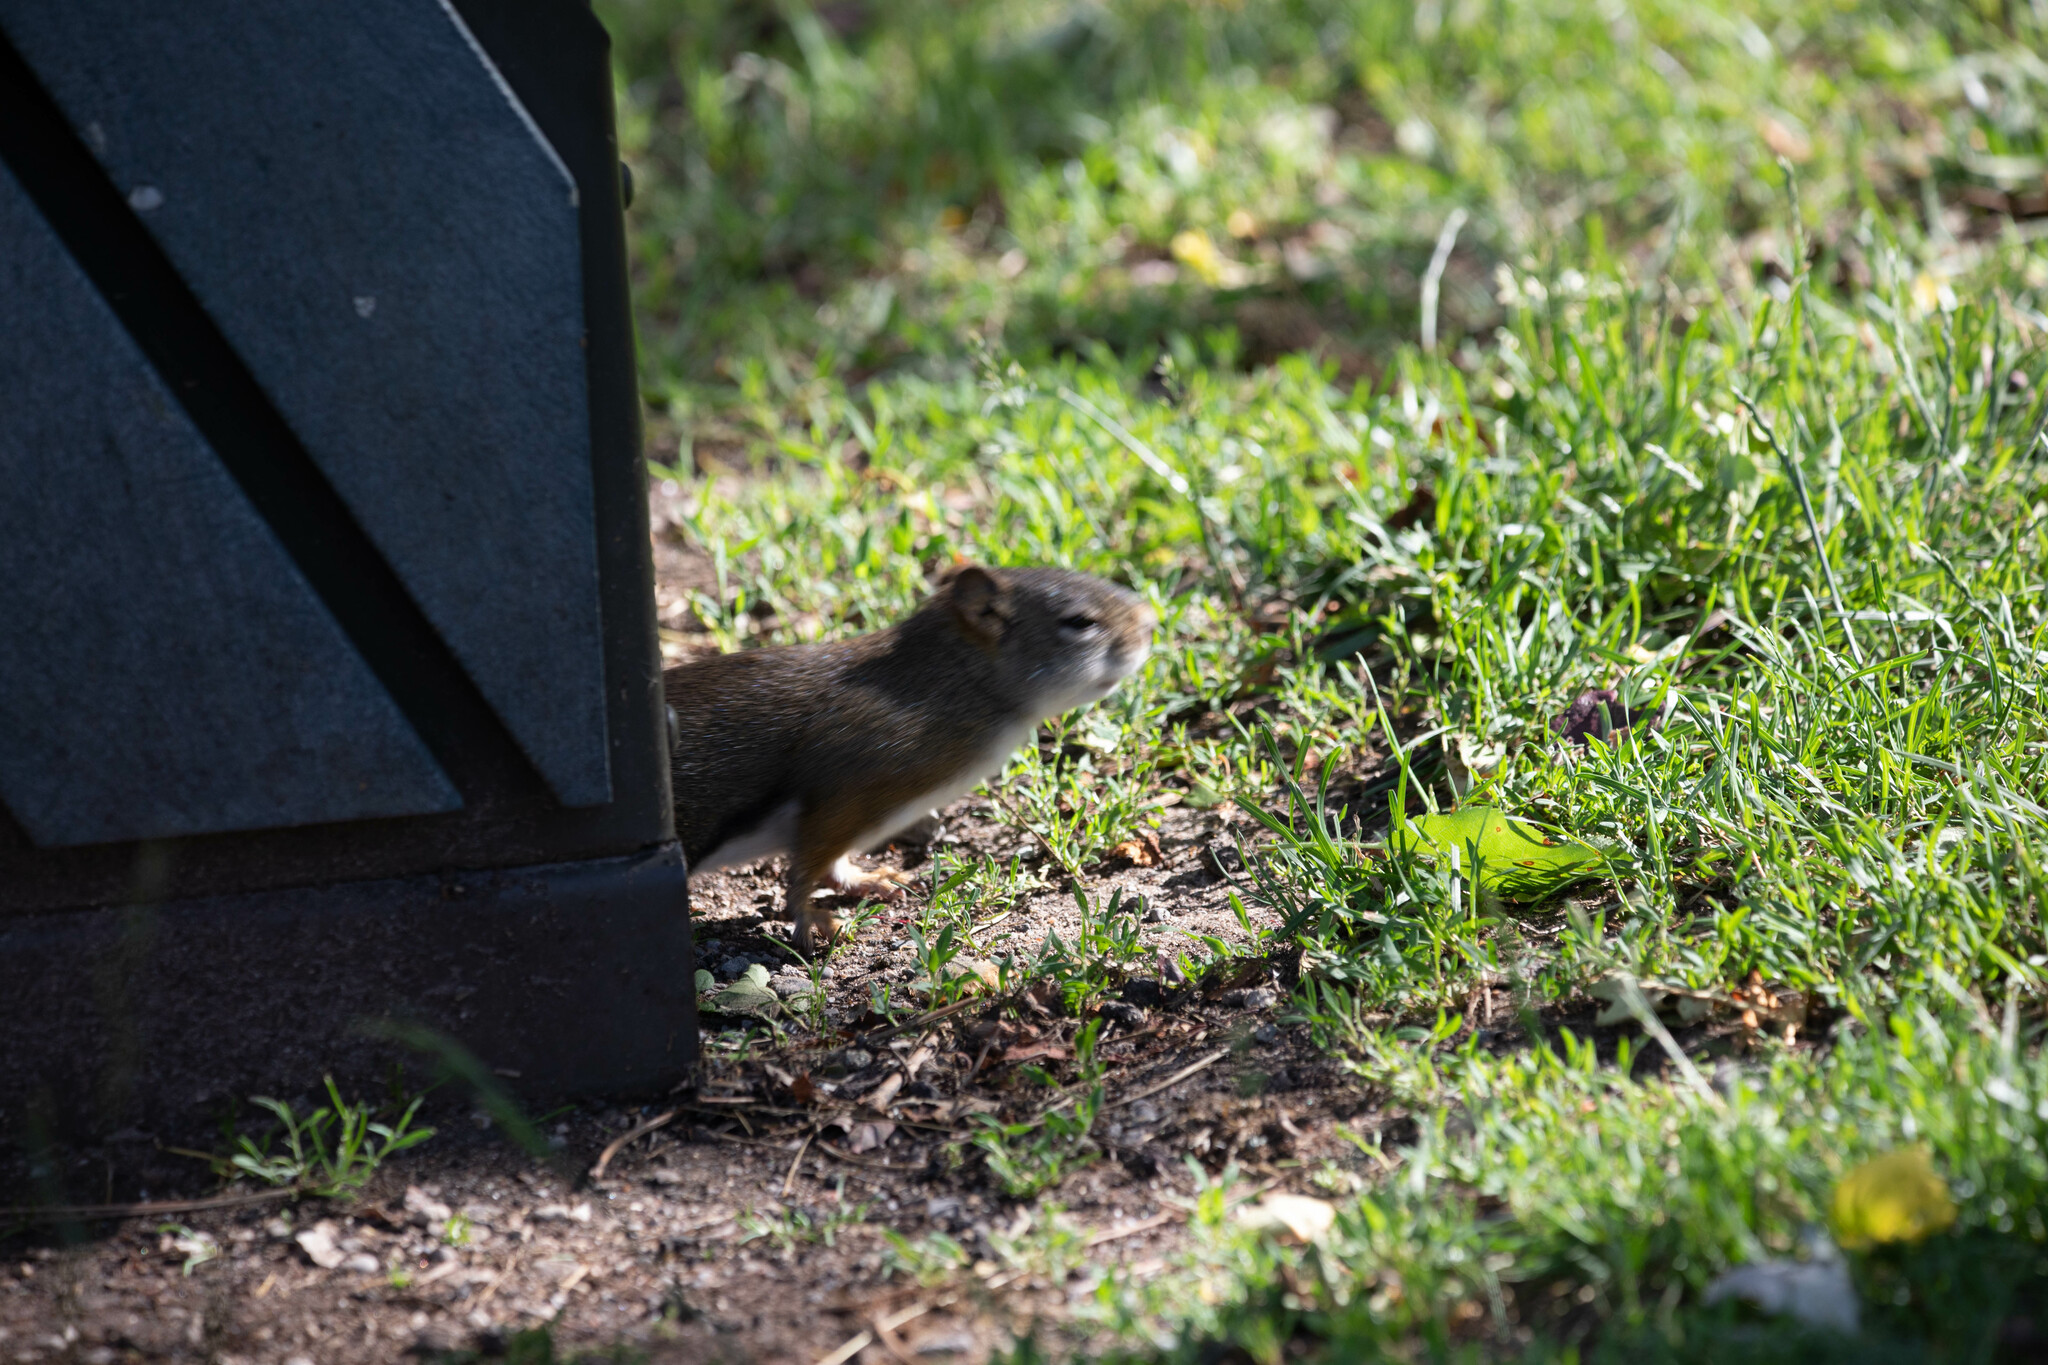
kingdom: Animalia
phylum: Chordata
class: Mammalia
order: Rodentia
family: Sciuridae
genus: Tamiasciurus
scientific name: Tamiasciurus hudsonicus
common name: Red squirrel
